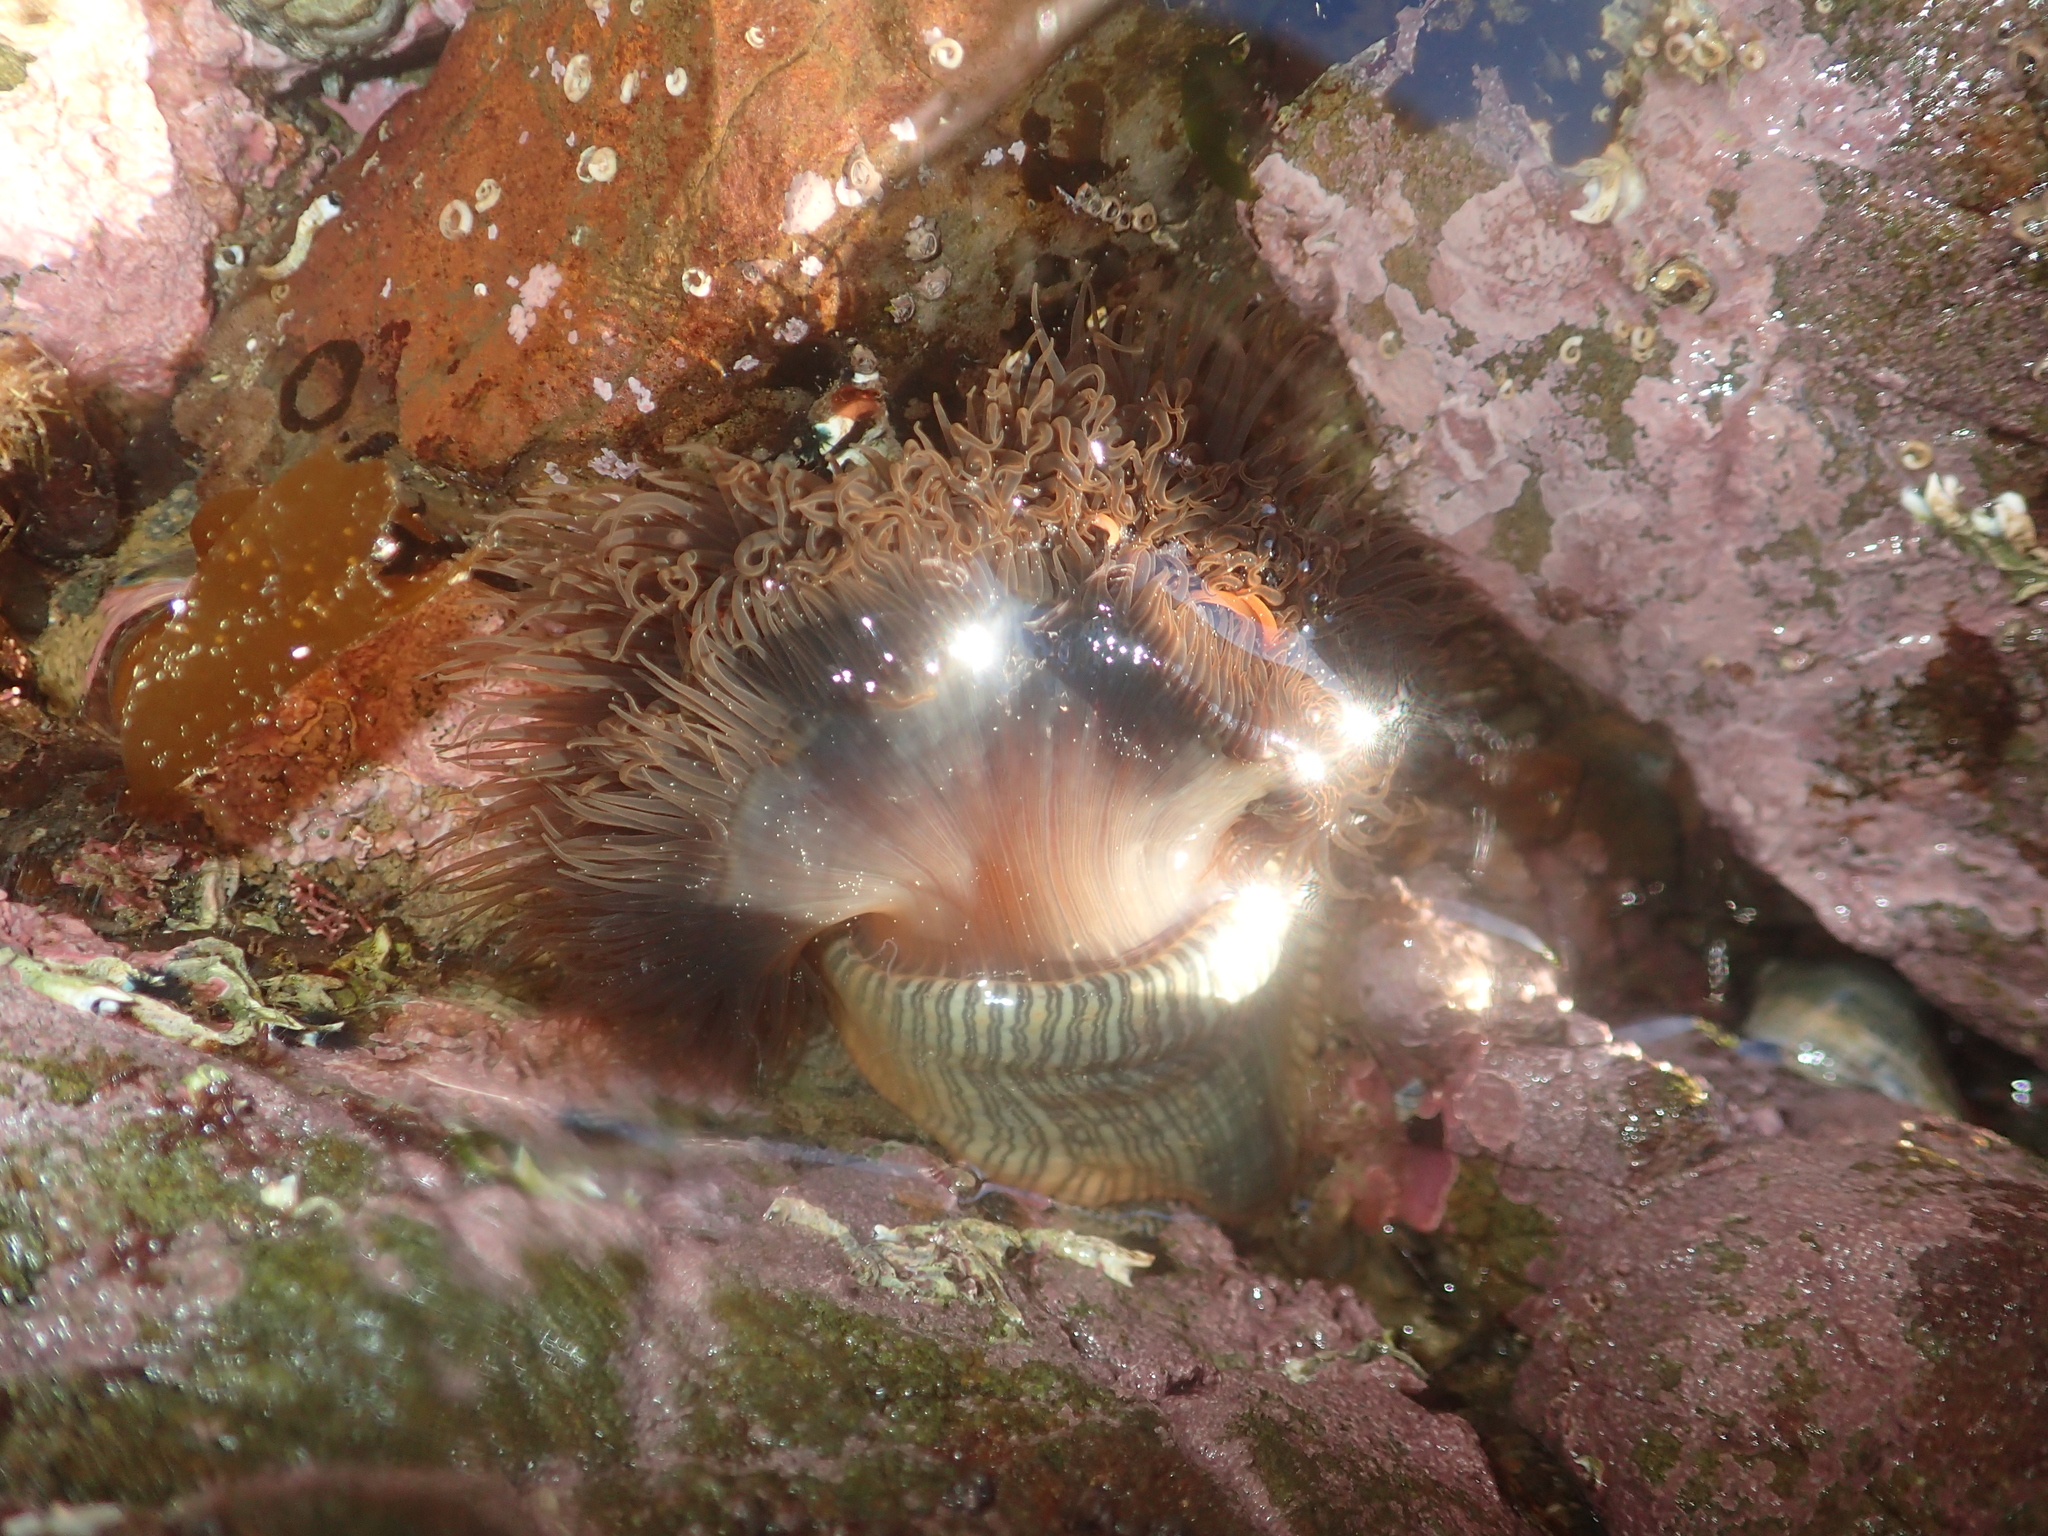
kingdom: Animalia
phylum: Cnidaria
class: Anthozoa
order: Actiniaria
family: Diadumenidae
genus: Diadumene
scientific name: Diadumene neozelanica
